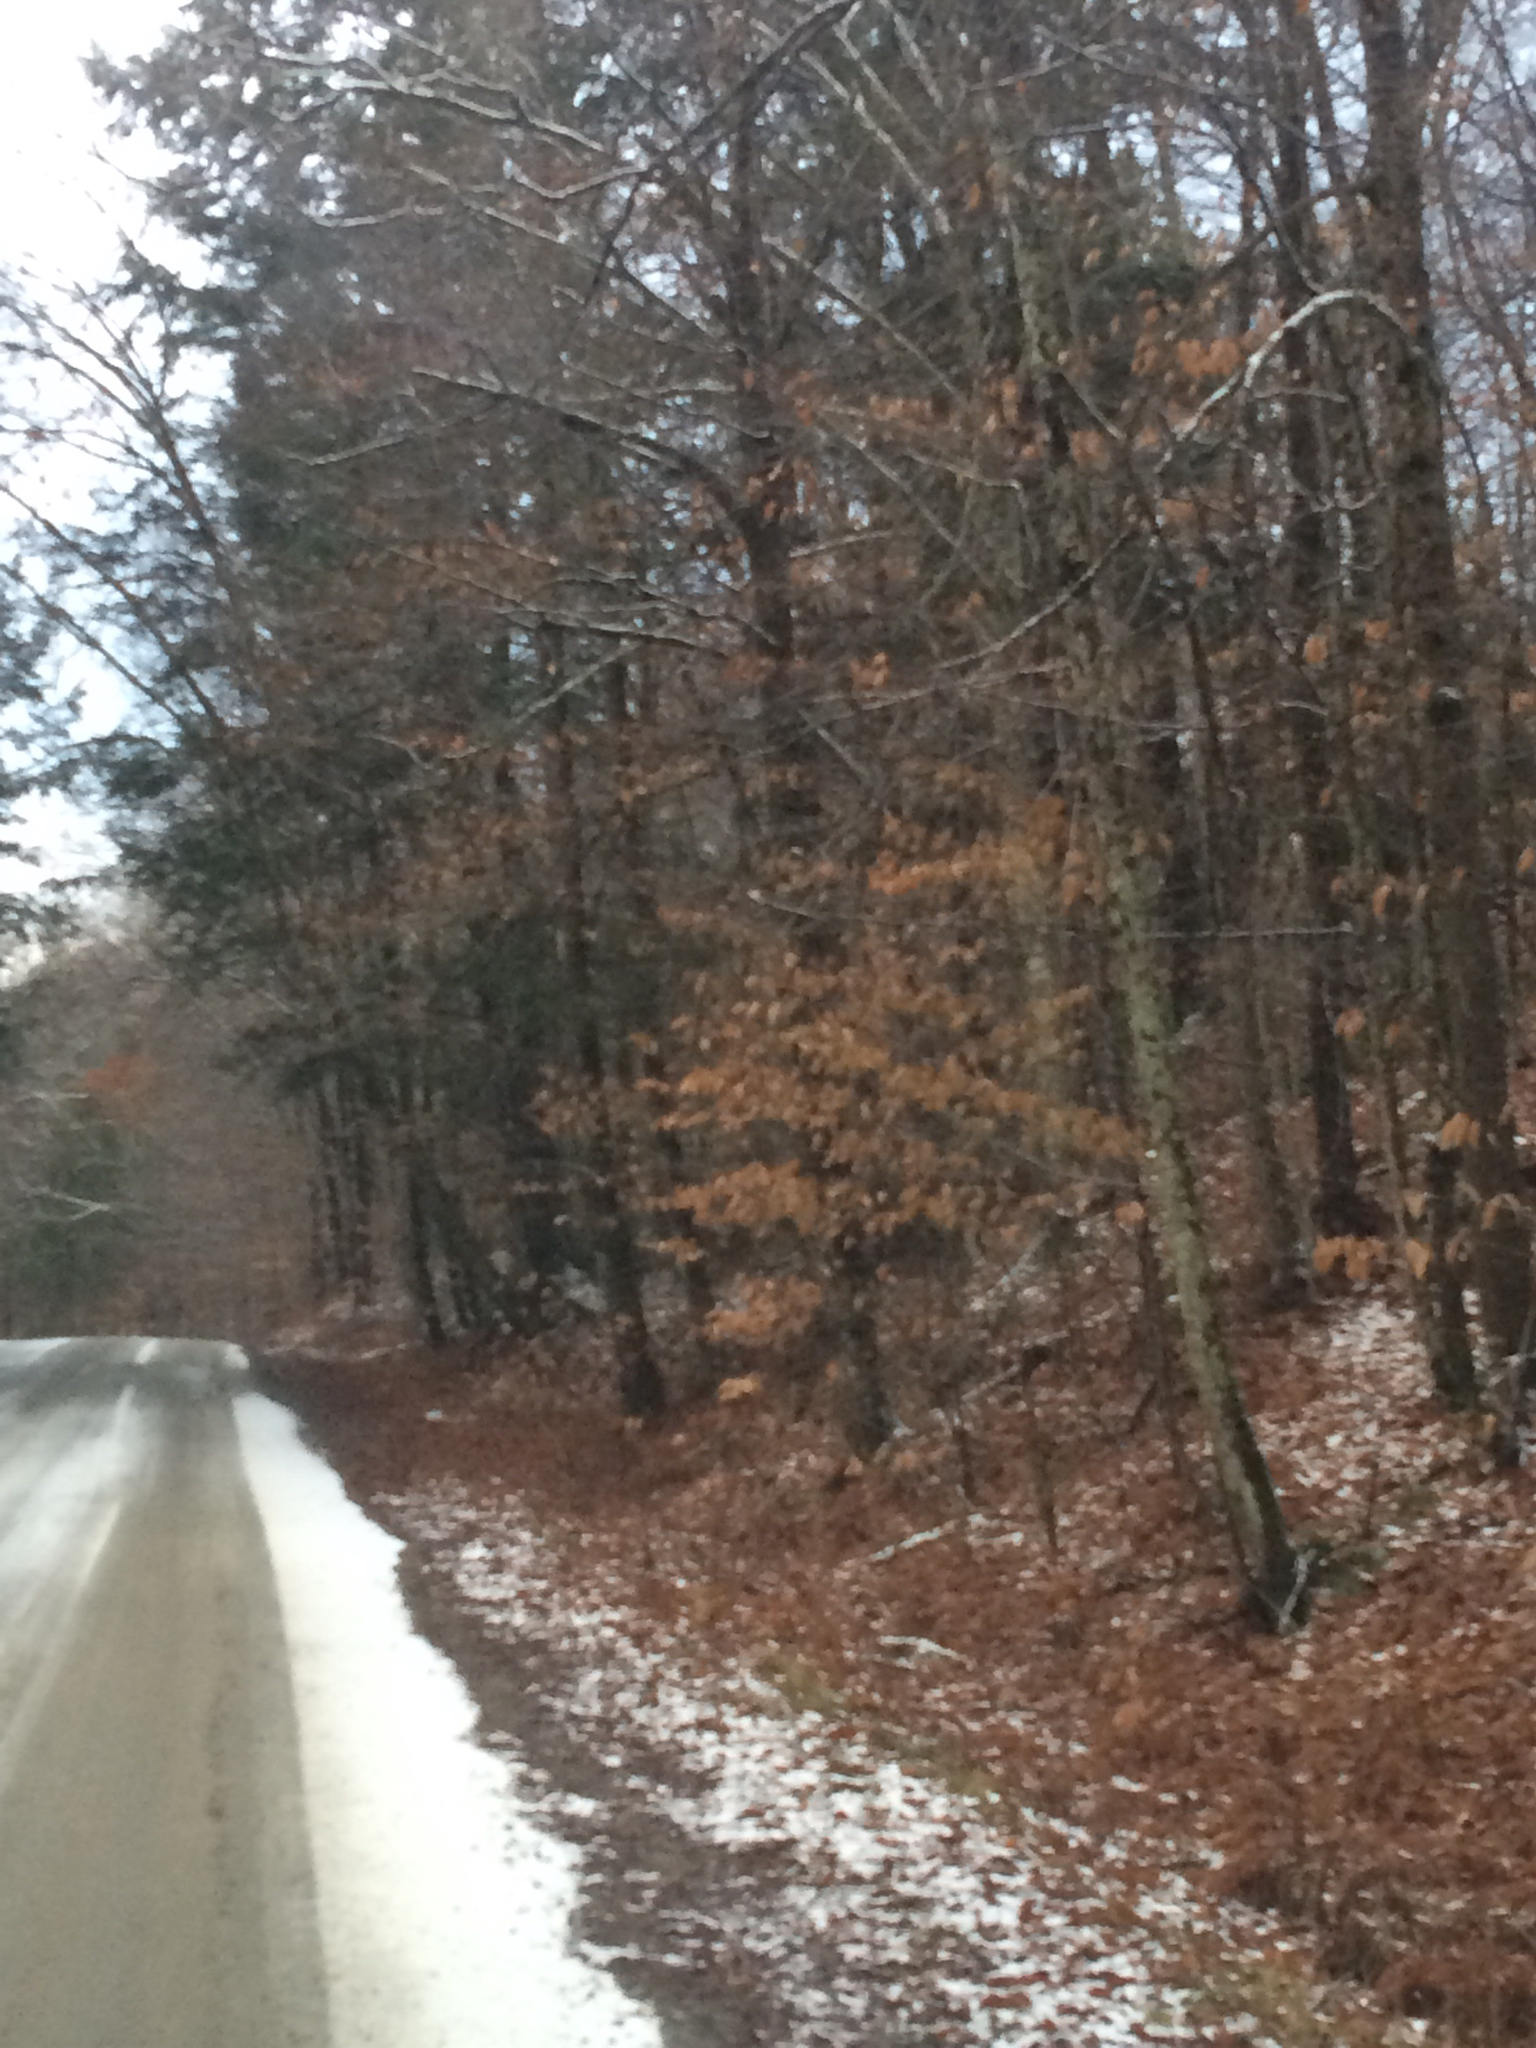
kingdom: Plantae
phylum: Tracheophyta
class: Magnoliopsida
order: Fagales
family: Fagaceae
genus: Fagus
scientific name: Fagus grandifolia
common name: American beech
